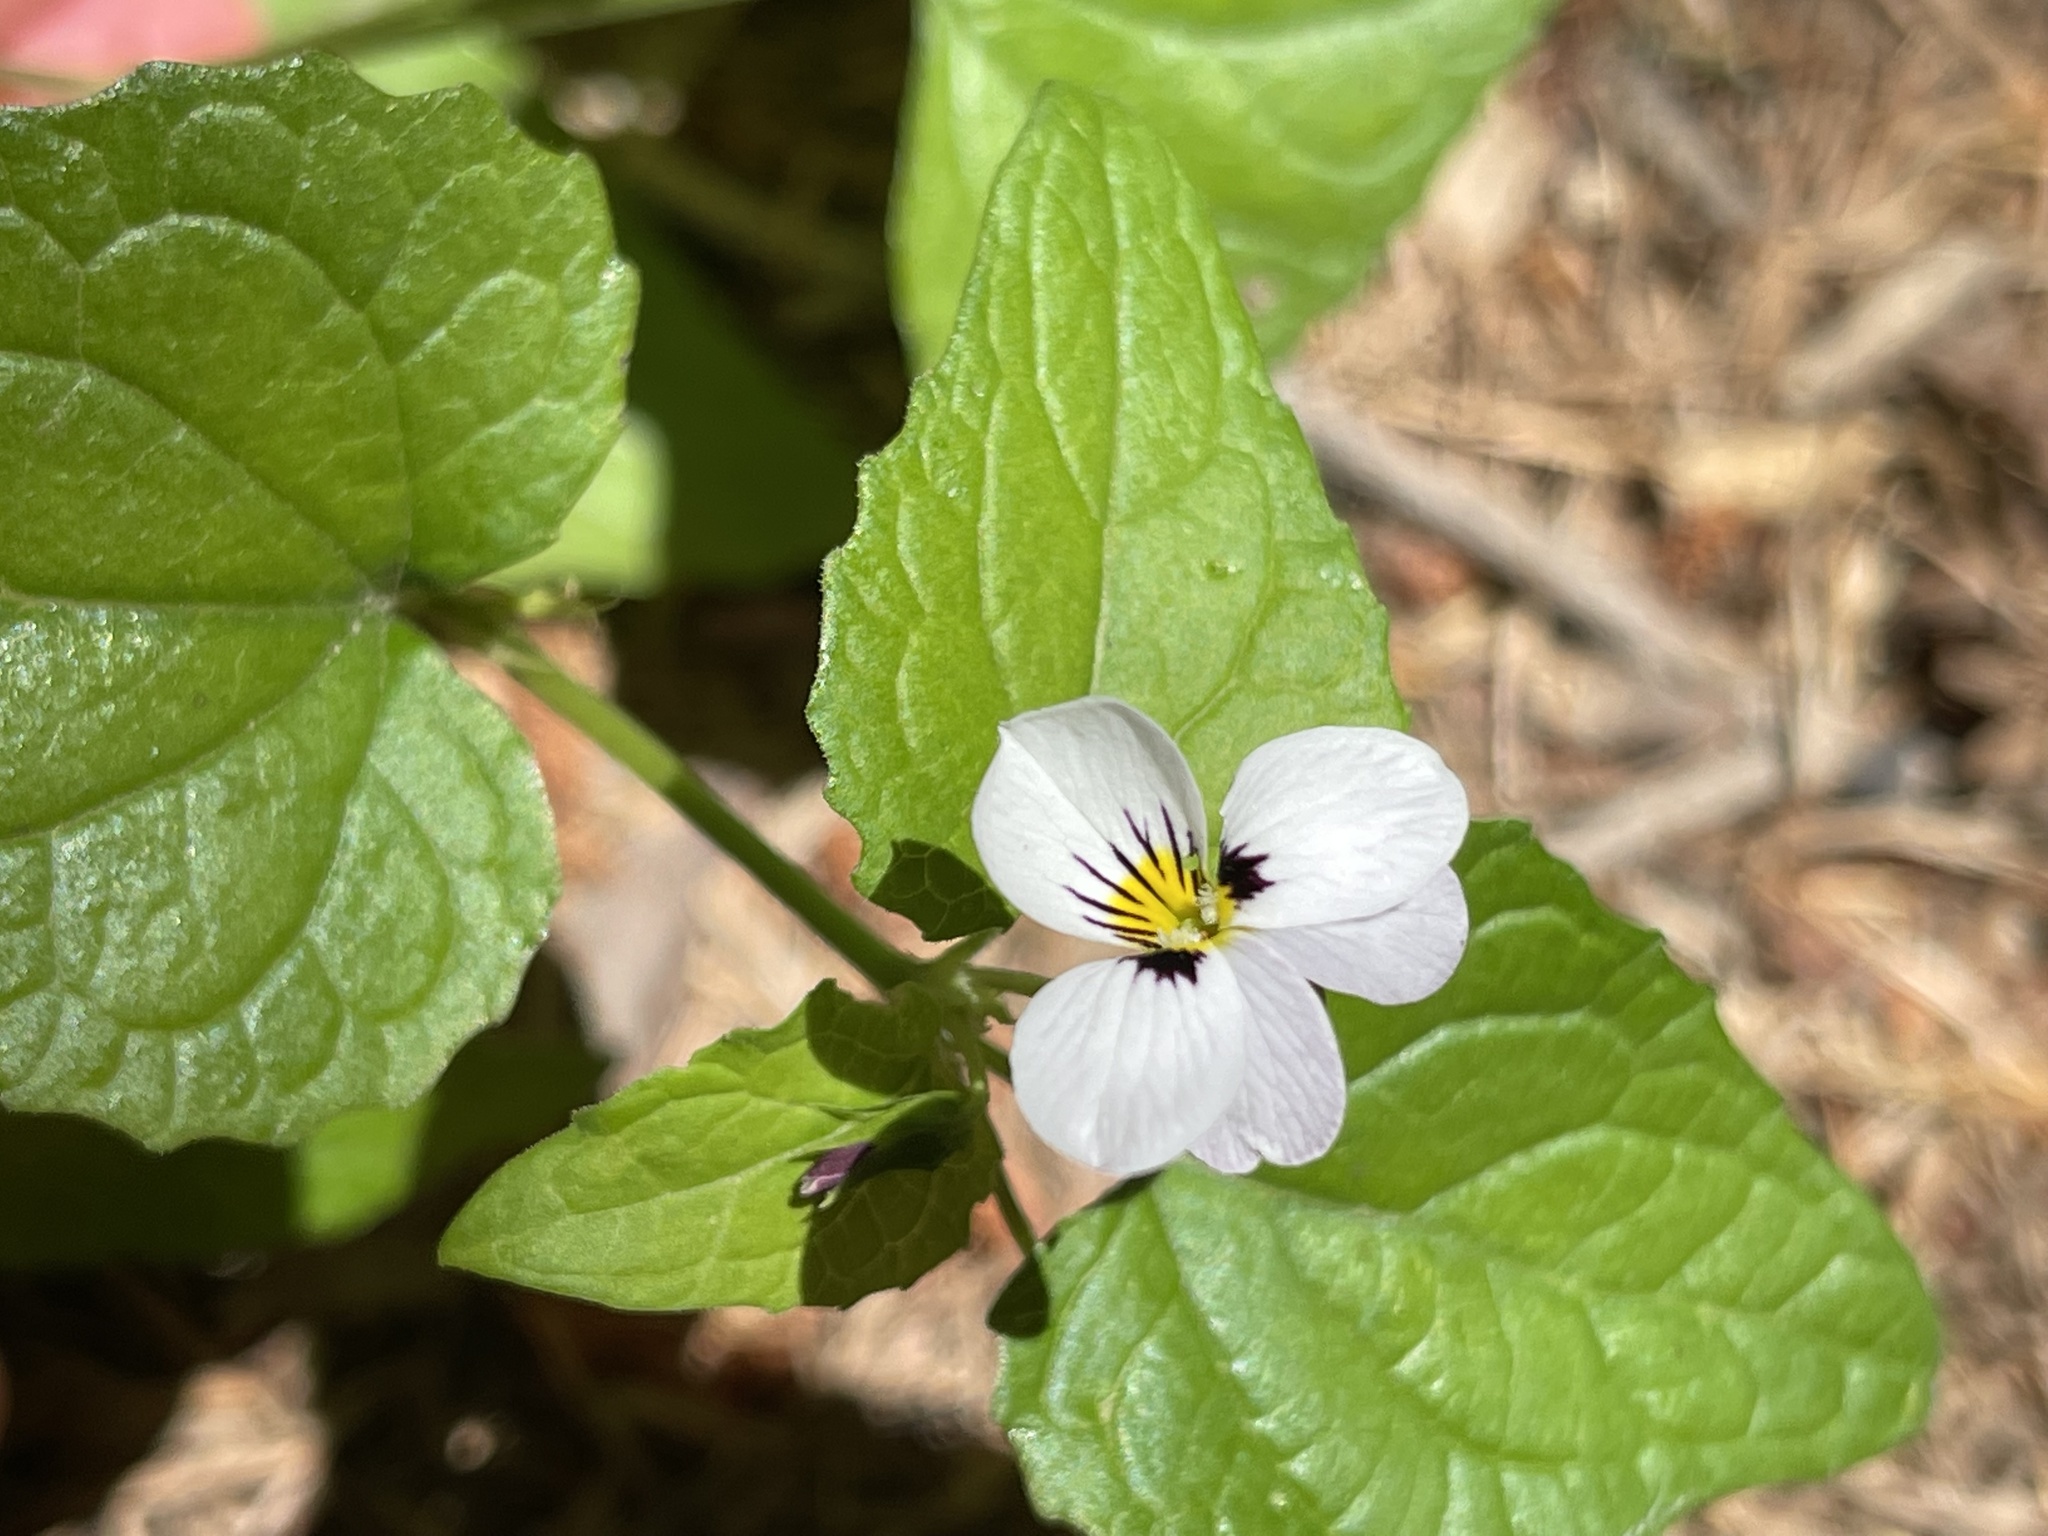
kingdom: Plantae
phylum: Tracheophyta
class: Magnoliopsida
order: Malpighiales
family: Violaceae
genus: Viola
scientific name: Viola ocellata
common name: Western heart's ease
